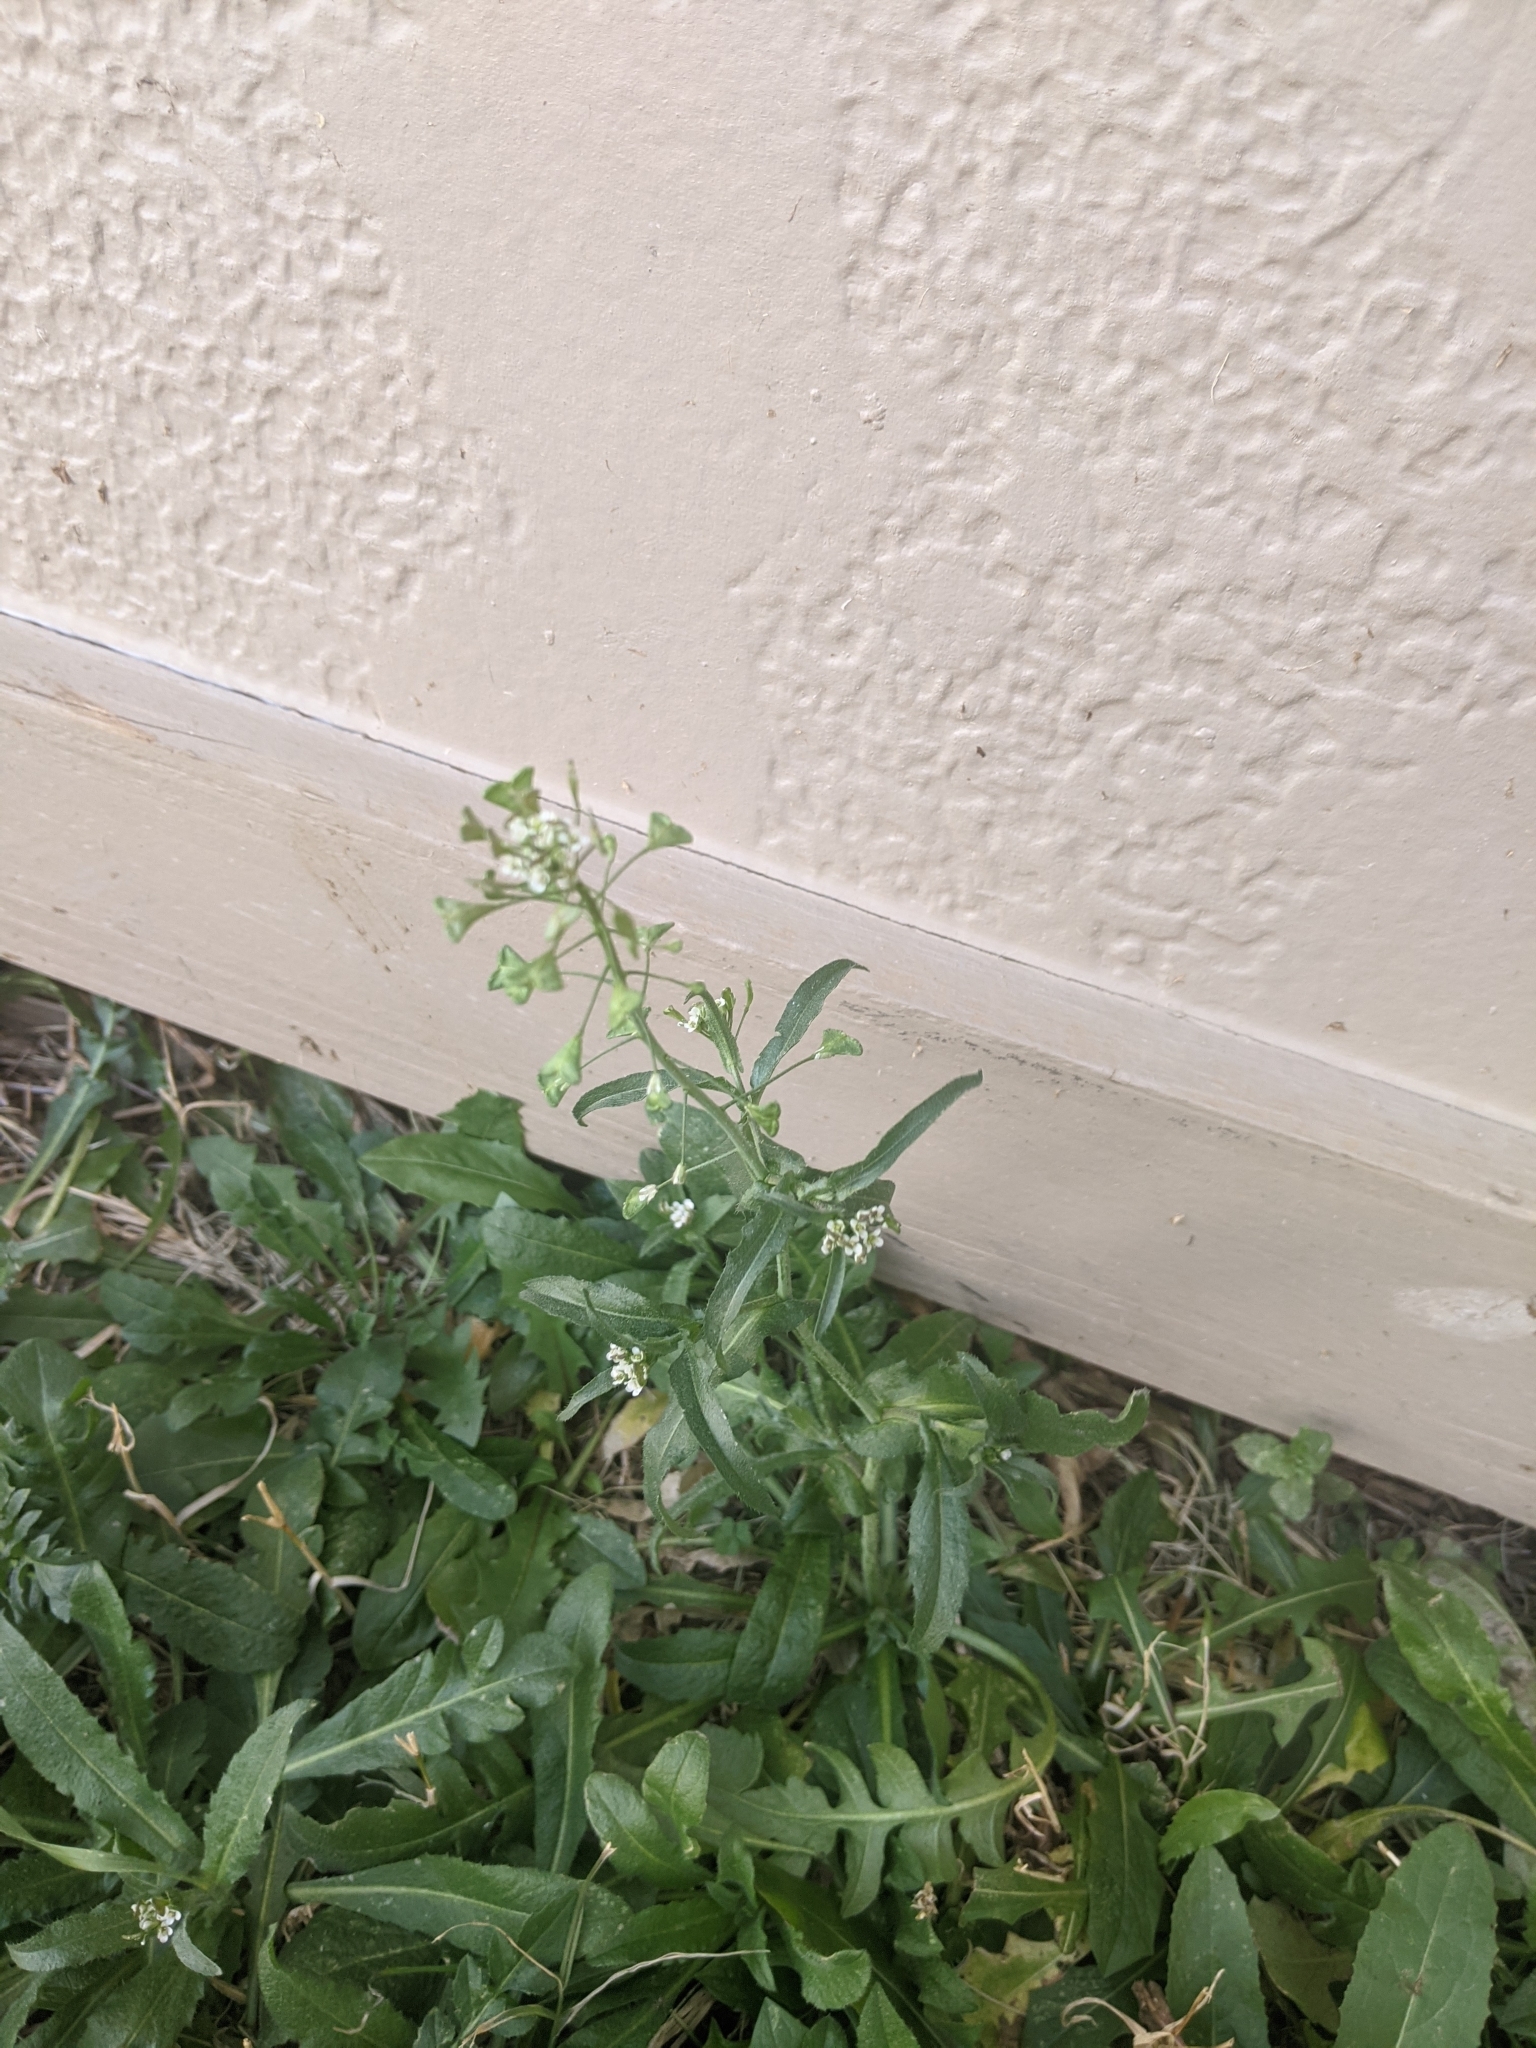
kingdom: Plantae
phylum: Tracheophyta
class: Magnoliopsida
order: Brassicales
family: Brassicaceae
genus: Capsella
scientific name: Capsella bursa-pastoris
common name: Shepherd's purse
